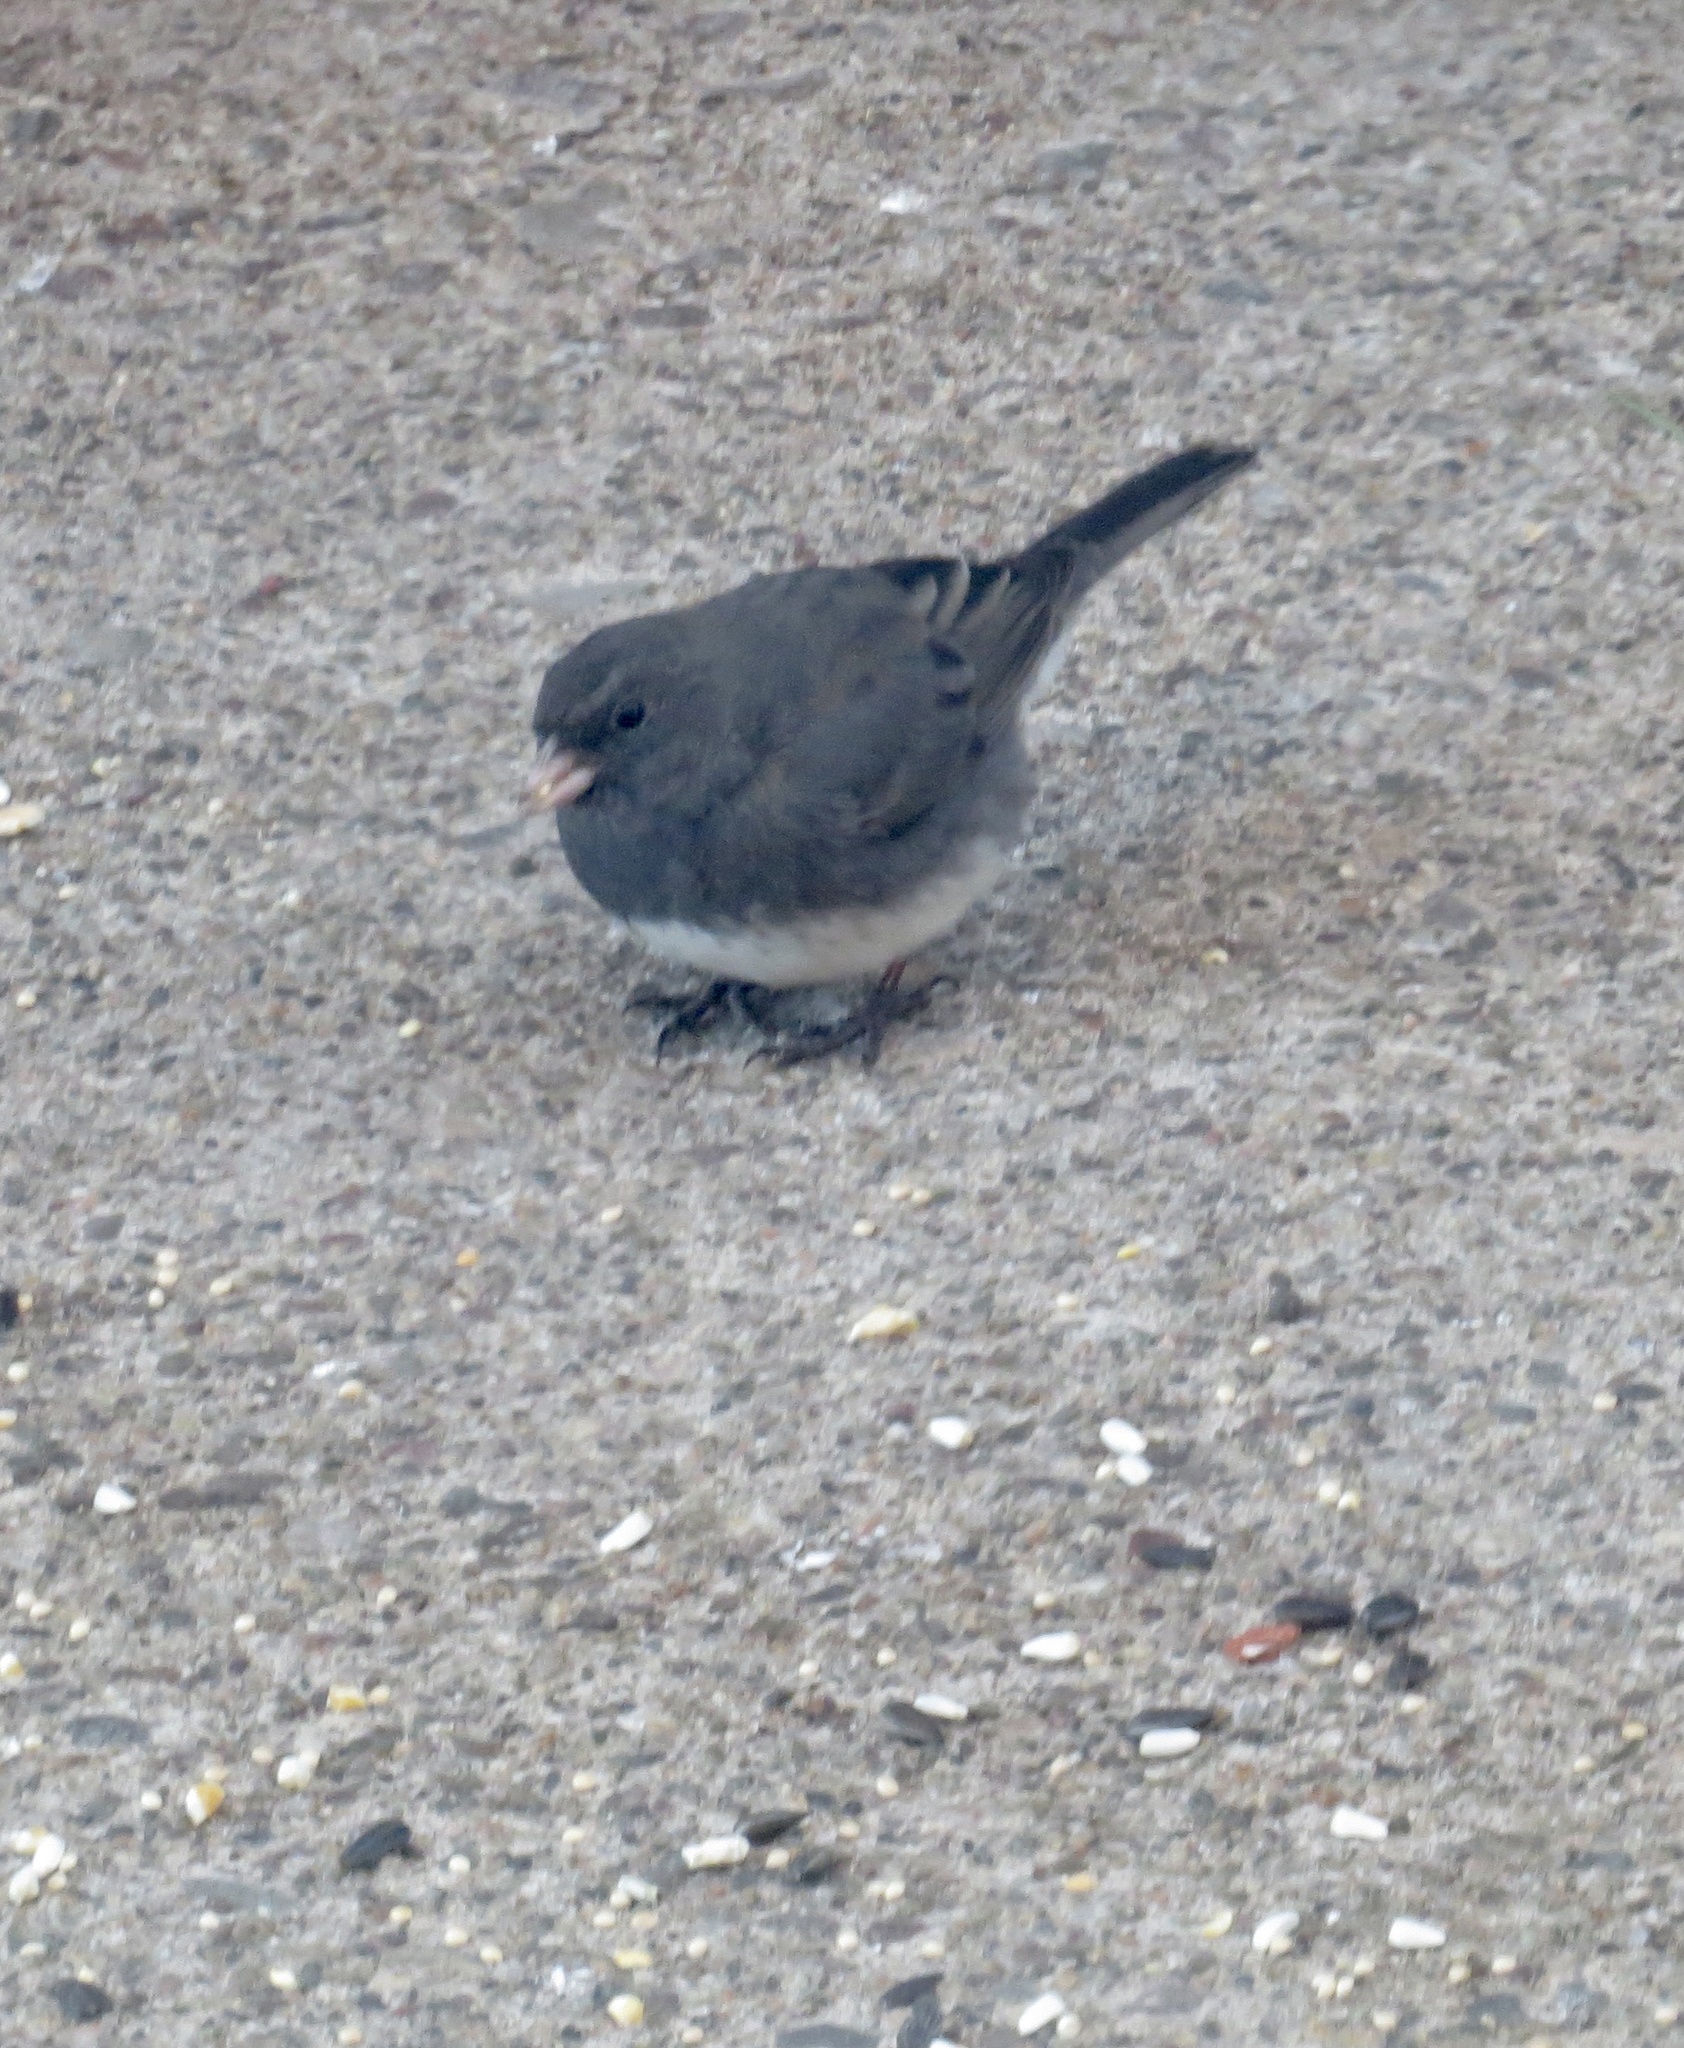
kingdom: Animalia
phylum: Chordata
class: Aves
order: Passeriformes
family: Passerellidae
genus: Junco
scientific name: Junco hyemalis
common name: Dark-eyed junco
